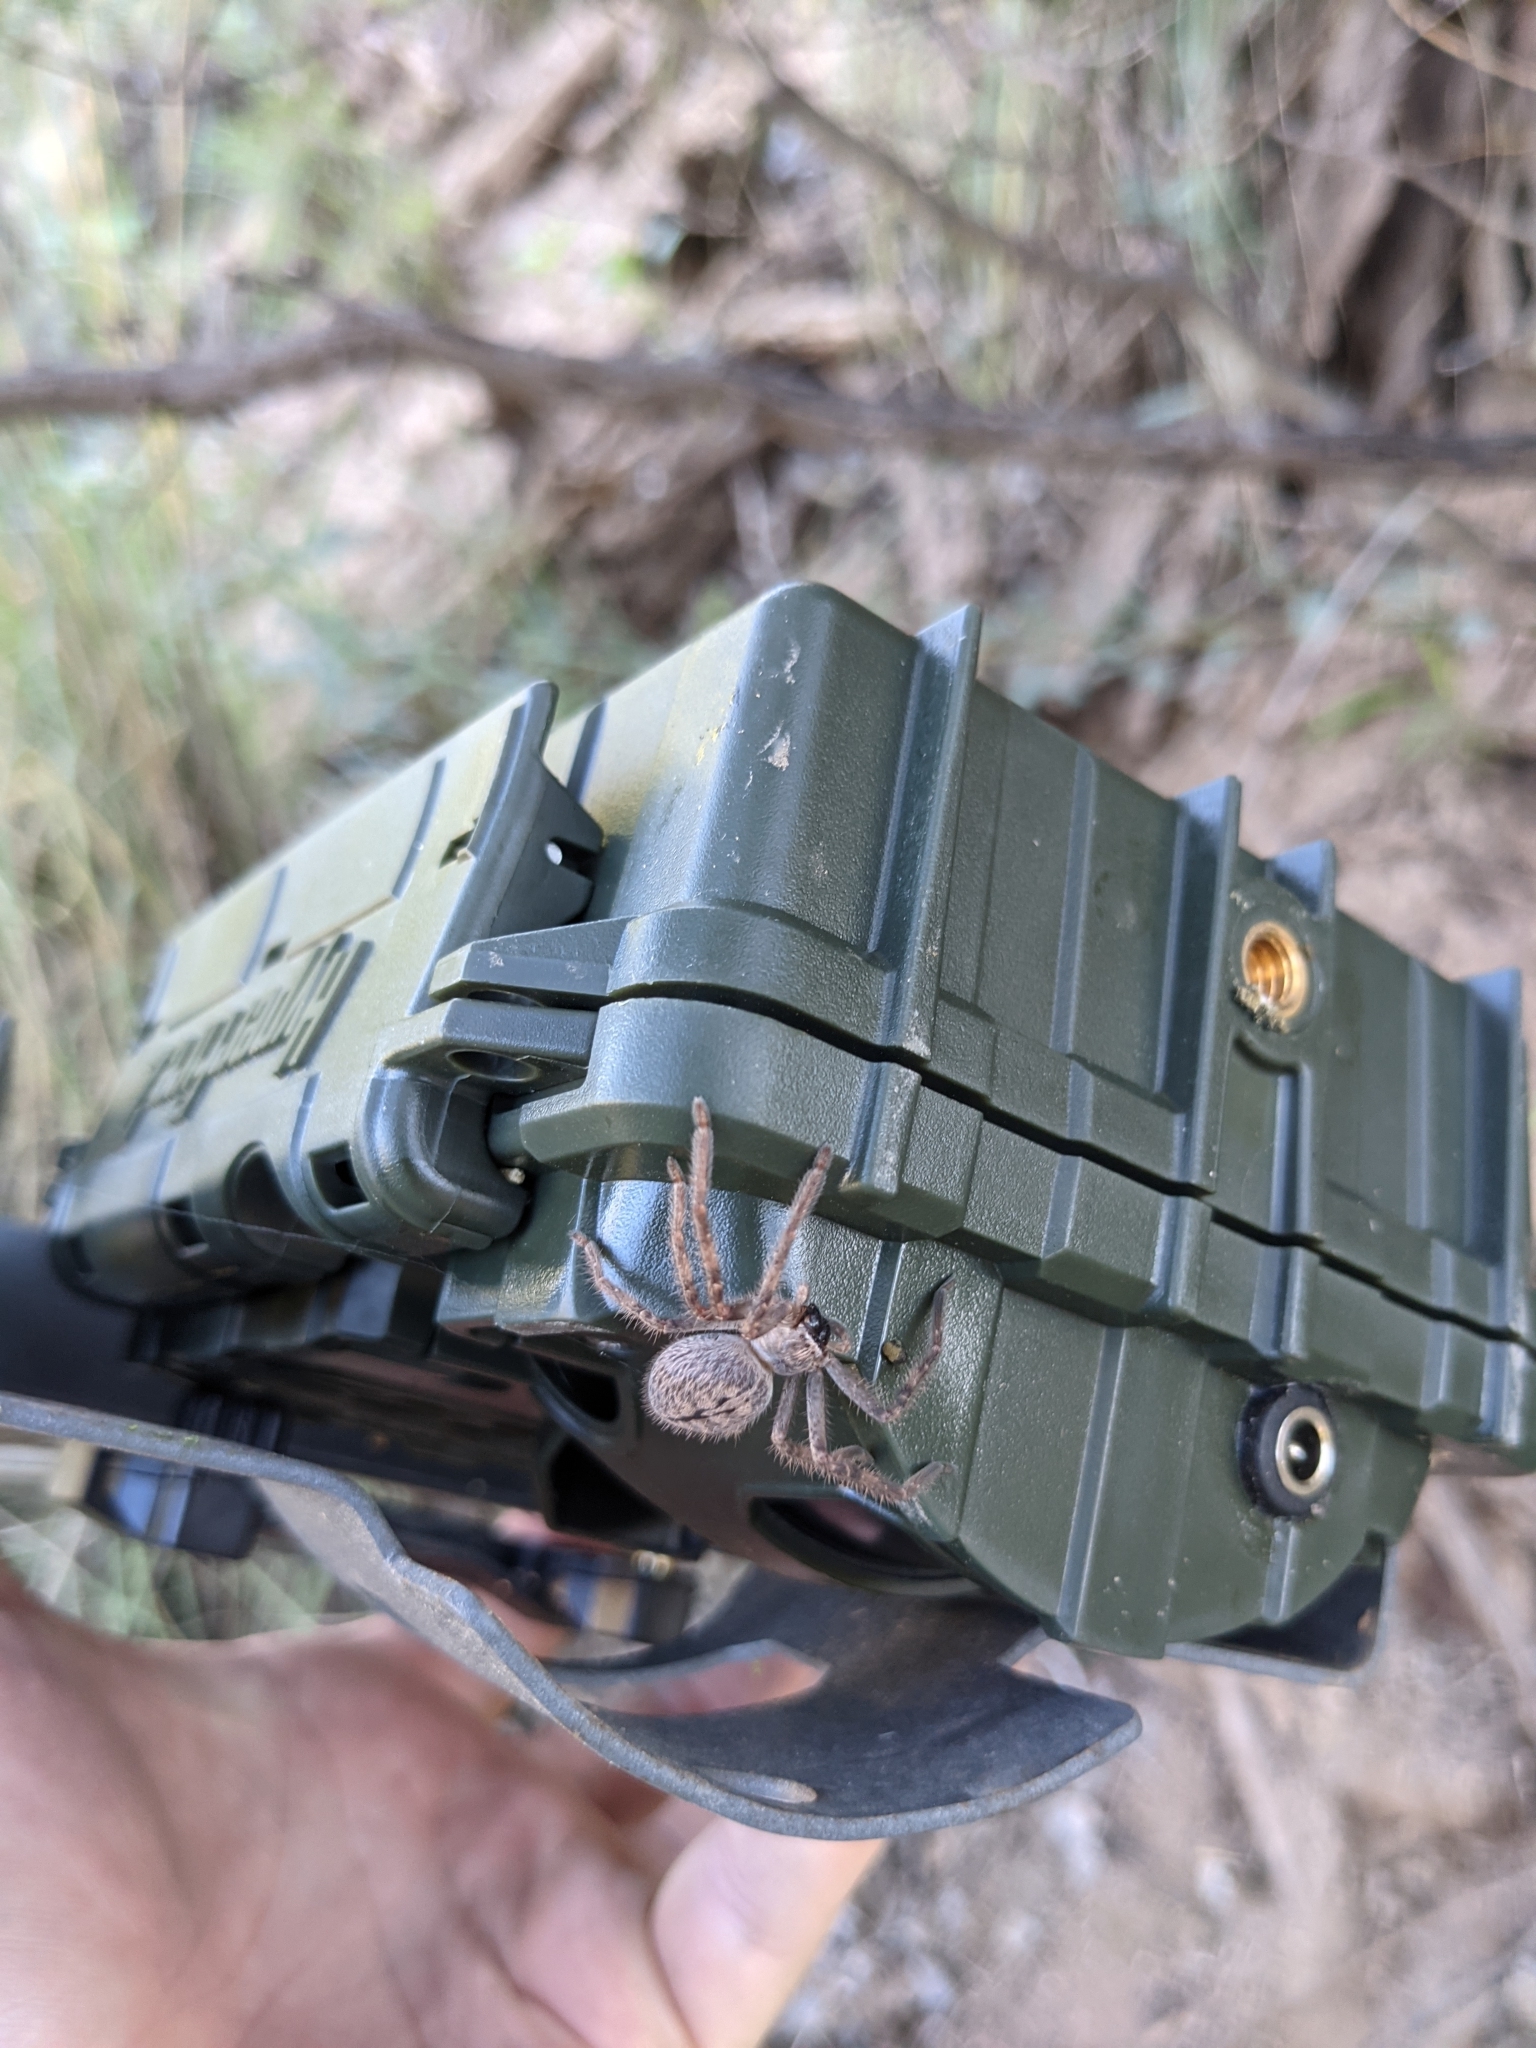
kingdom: Animalia
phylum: Arthropoda
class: Arachnida
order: Araneae
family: Sparassidae
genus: Olios
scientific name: Olios giganteus
